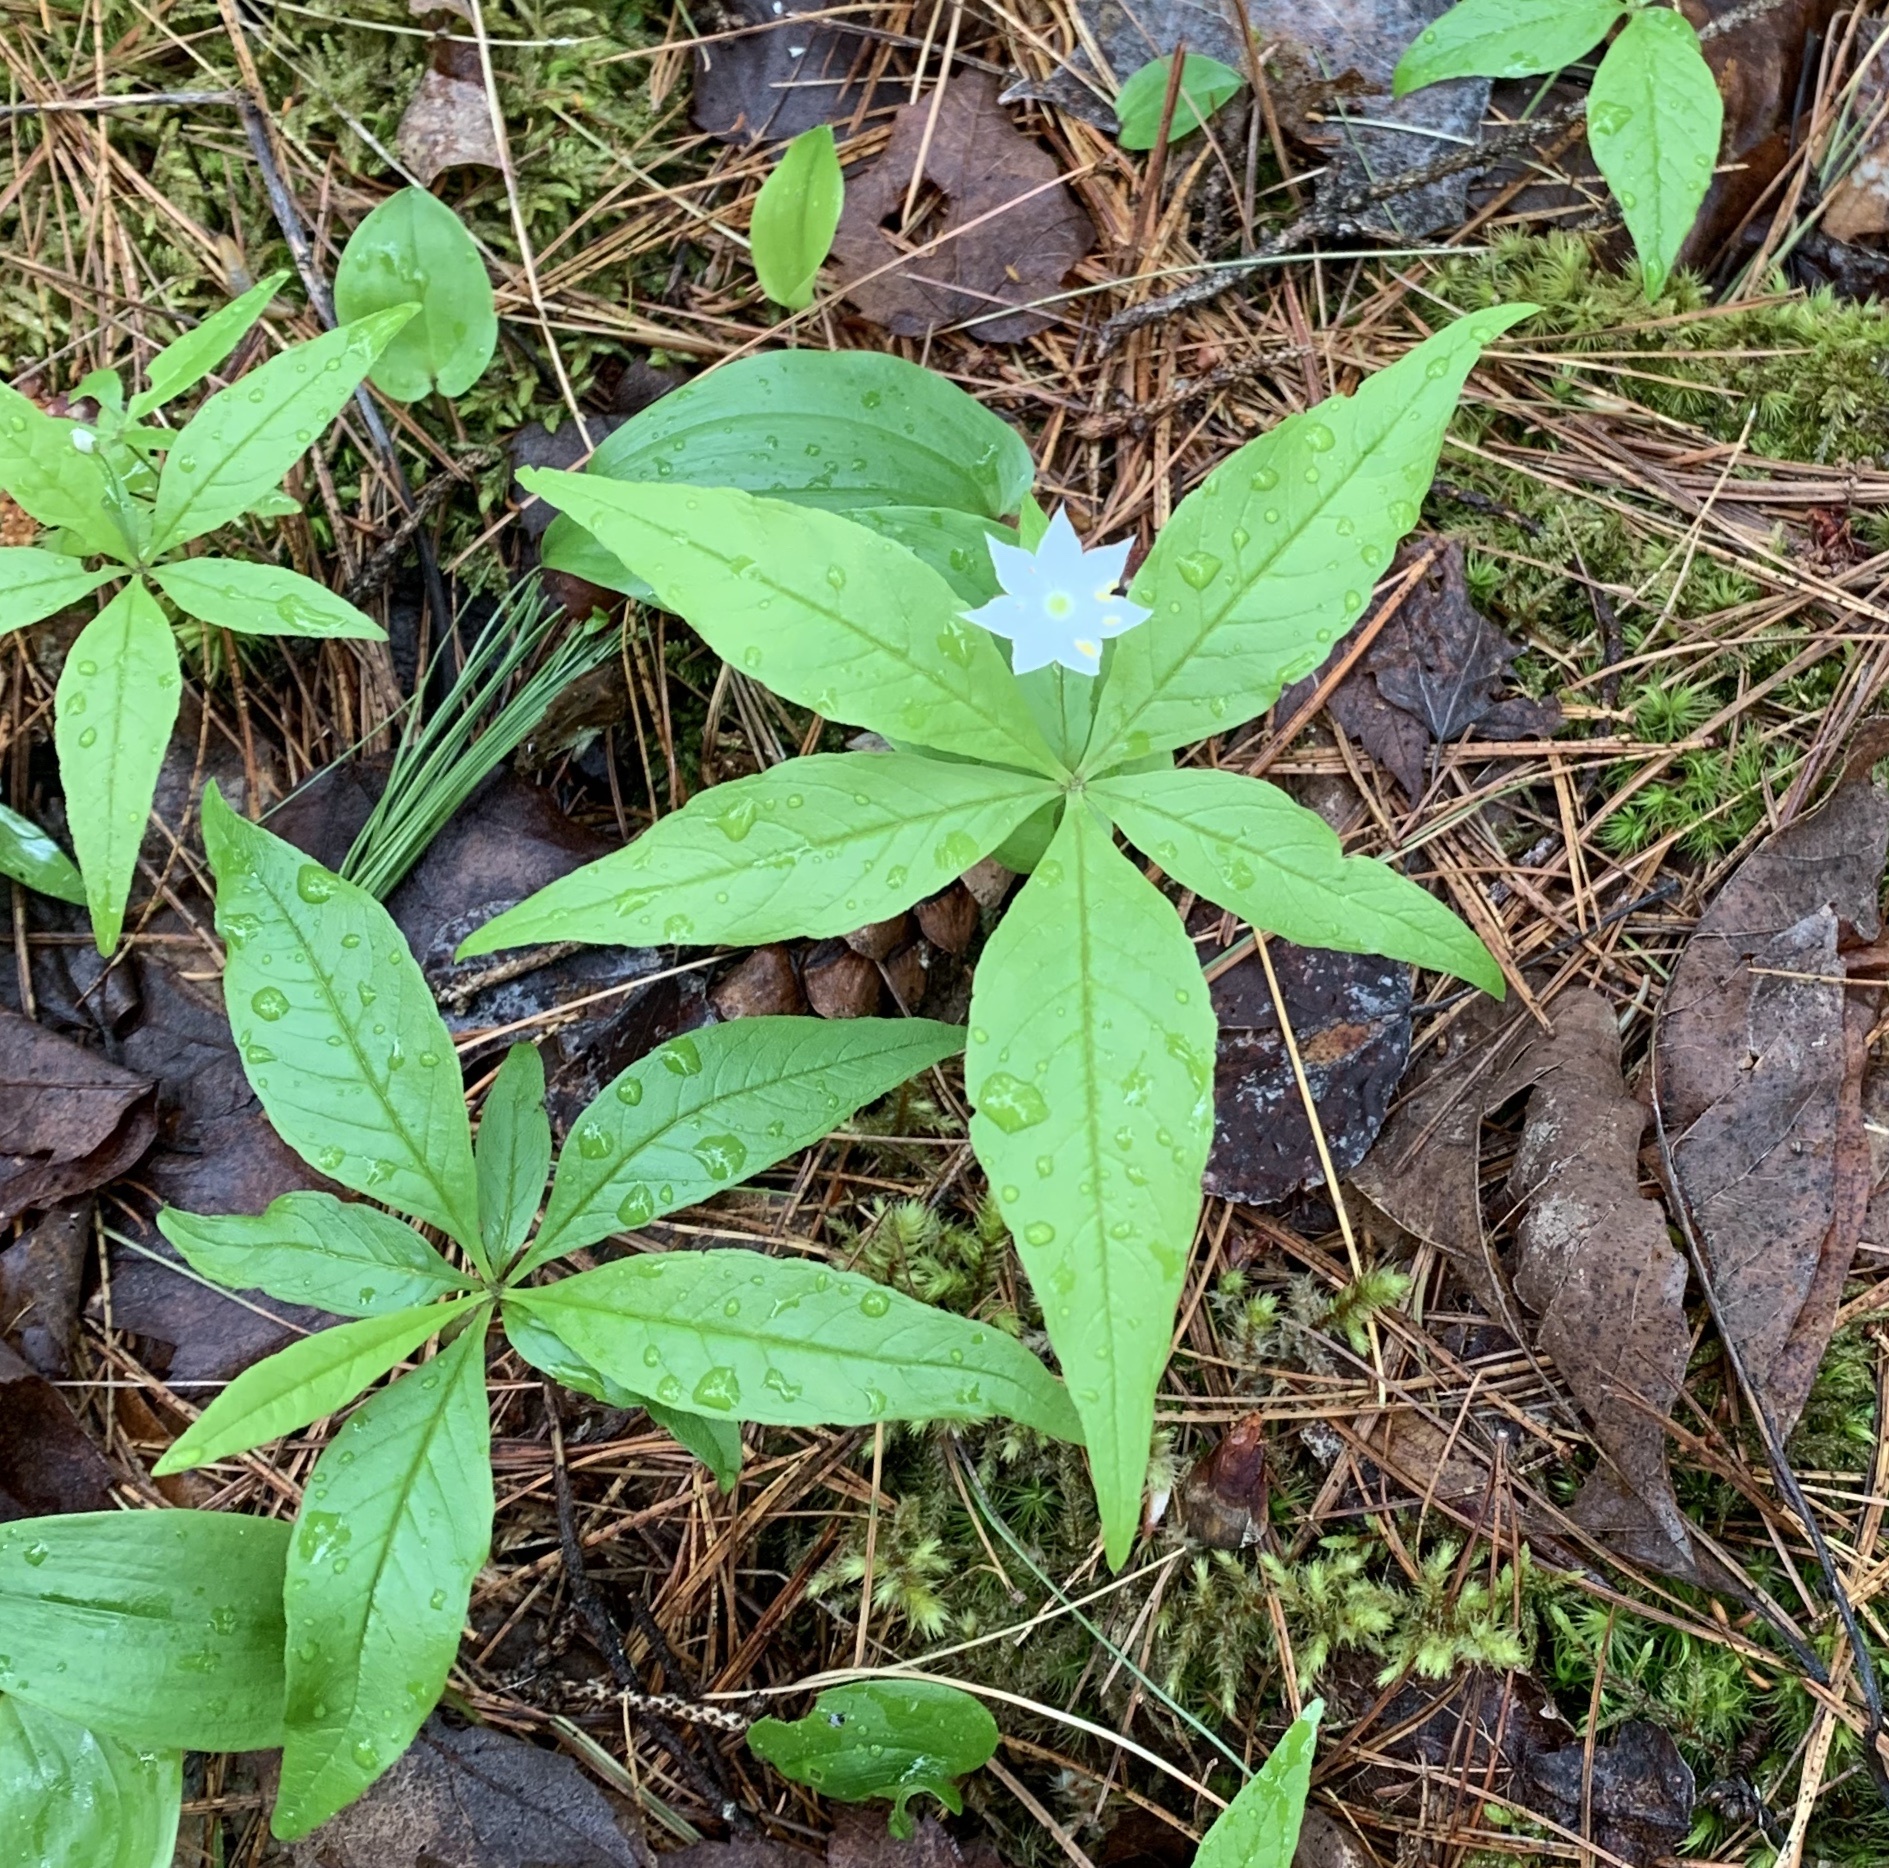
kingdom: Plantae
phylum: Tracheophyta
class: Magnoliopsida
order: Ericales
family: Primulaceae
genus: Lysimachia
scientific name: Lysimachia borealis
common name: American starflower
